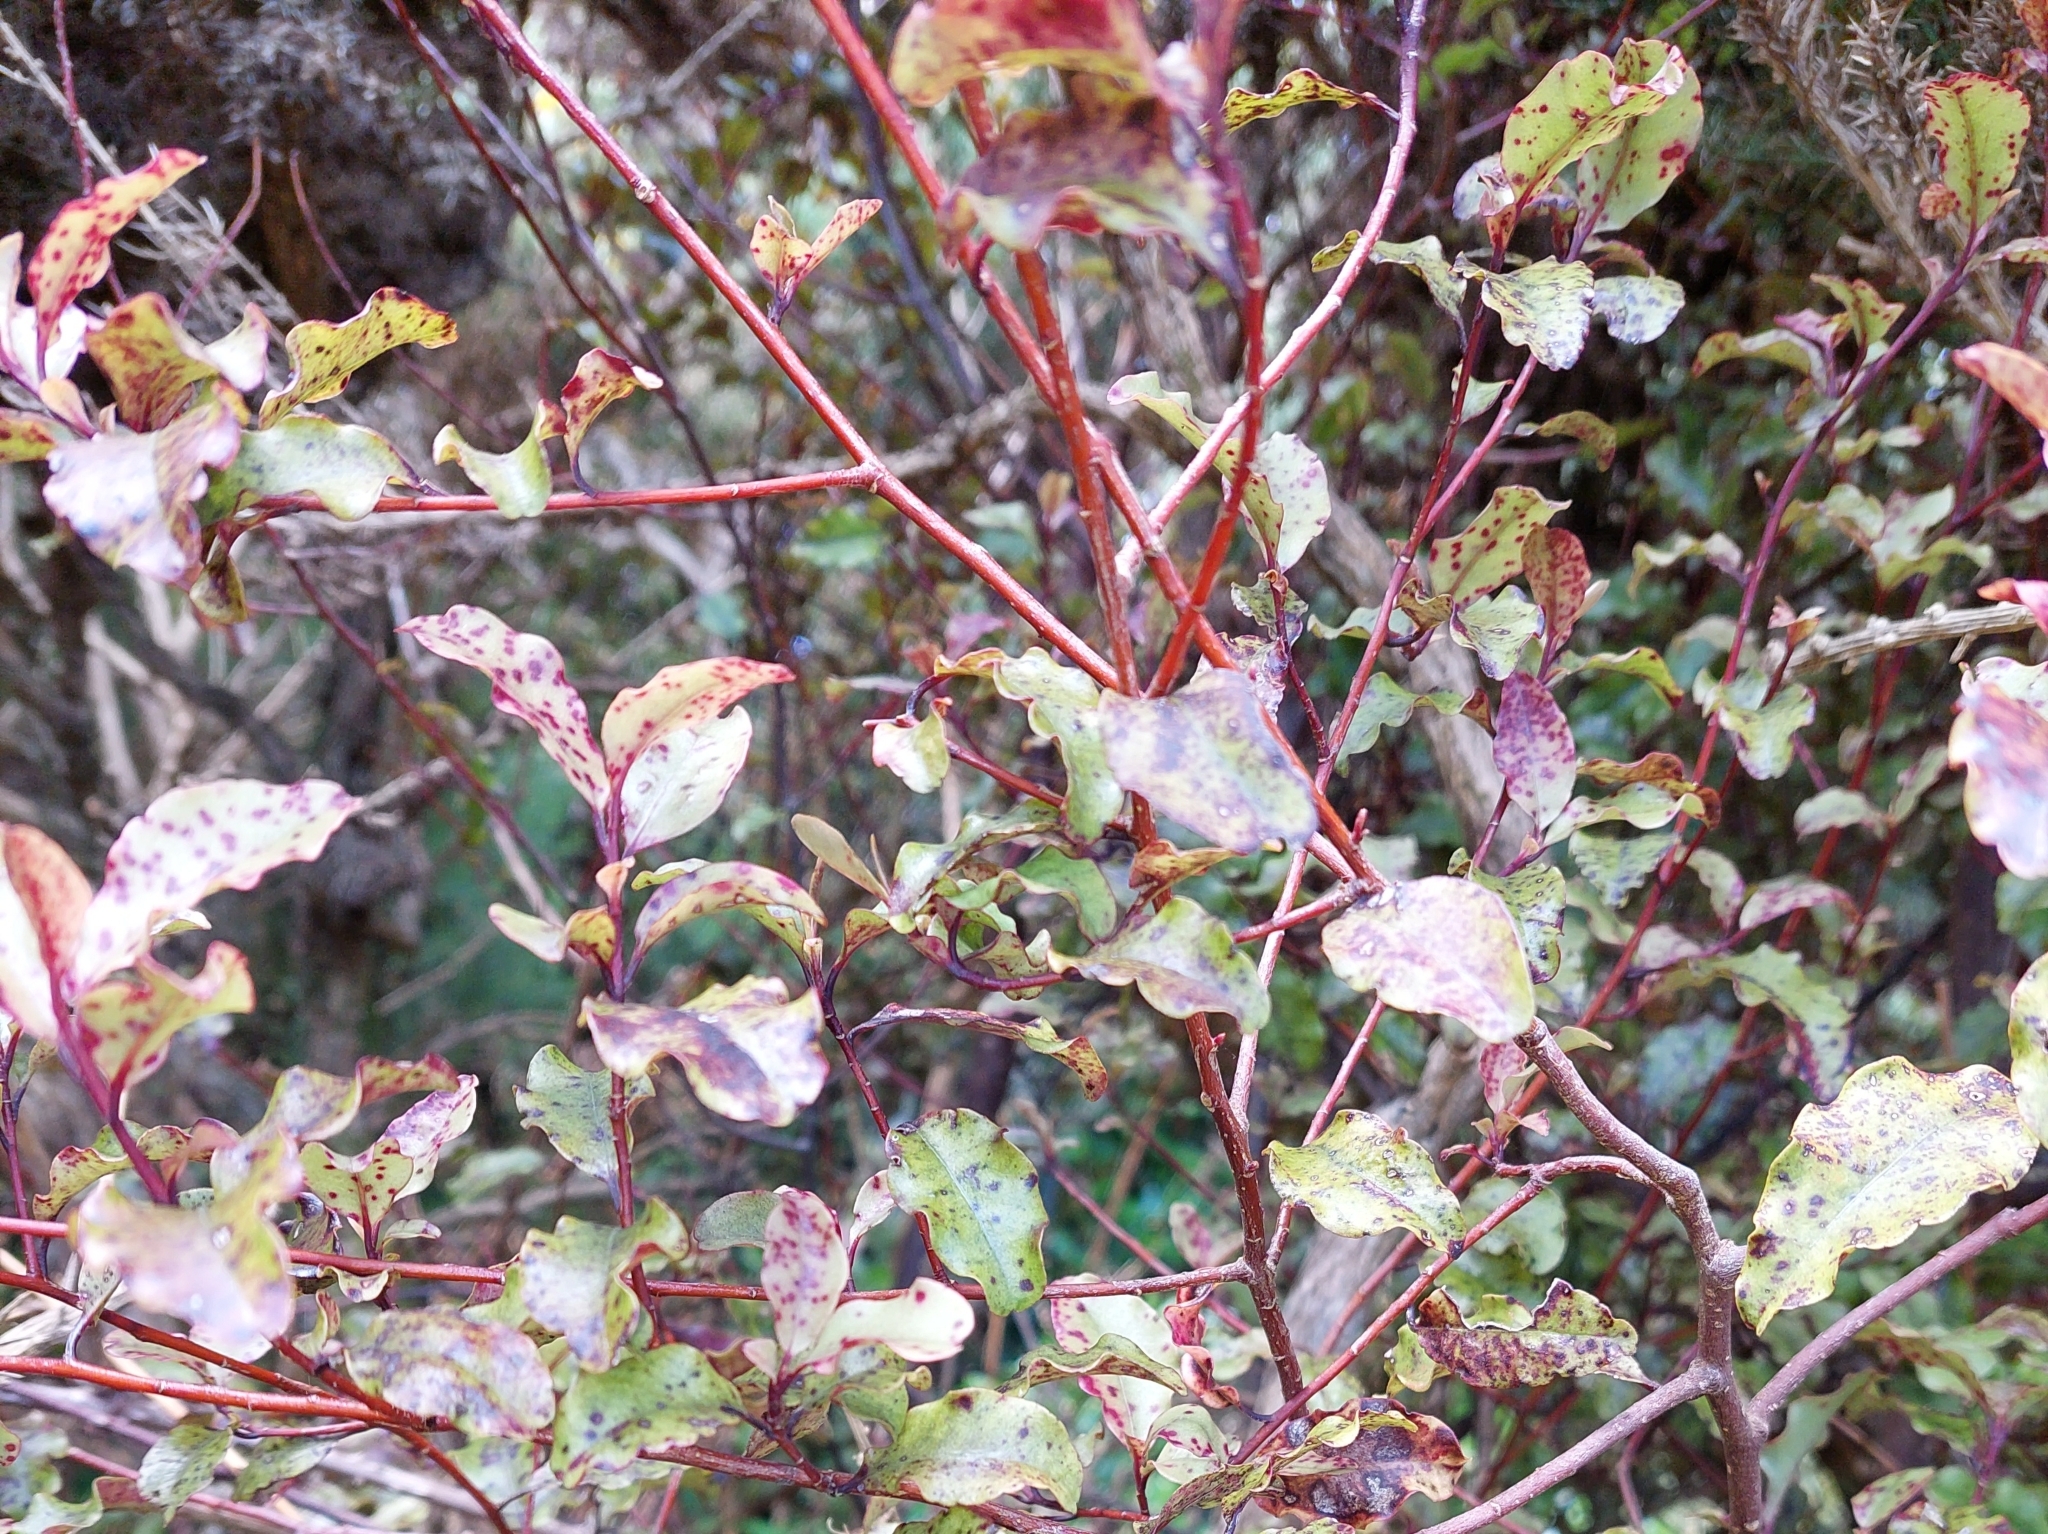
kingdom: Plantae
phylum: Tracheophyta
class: Magnoliopsida
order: Ericales
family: Primulaceae
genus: Myrsine
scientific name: Myrsine australis
